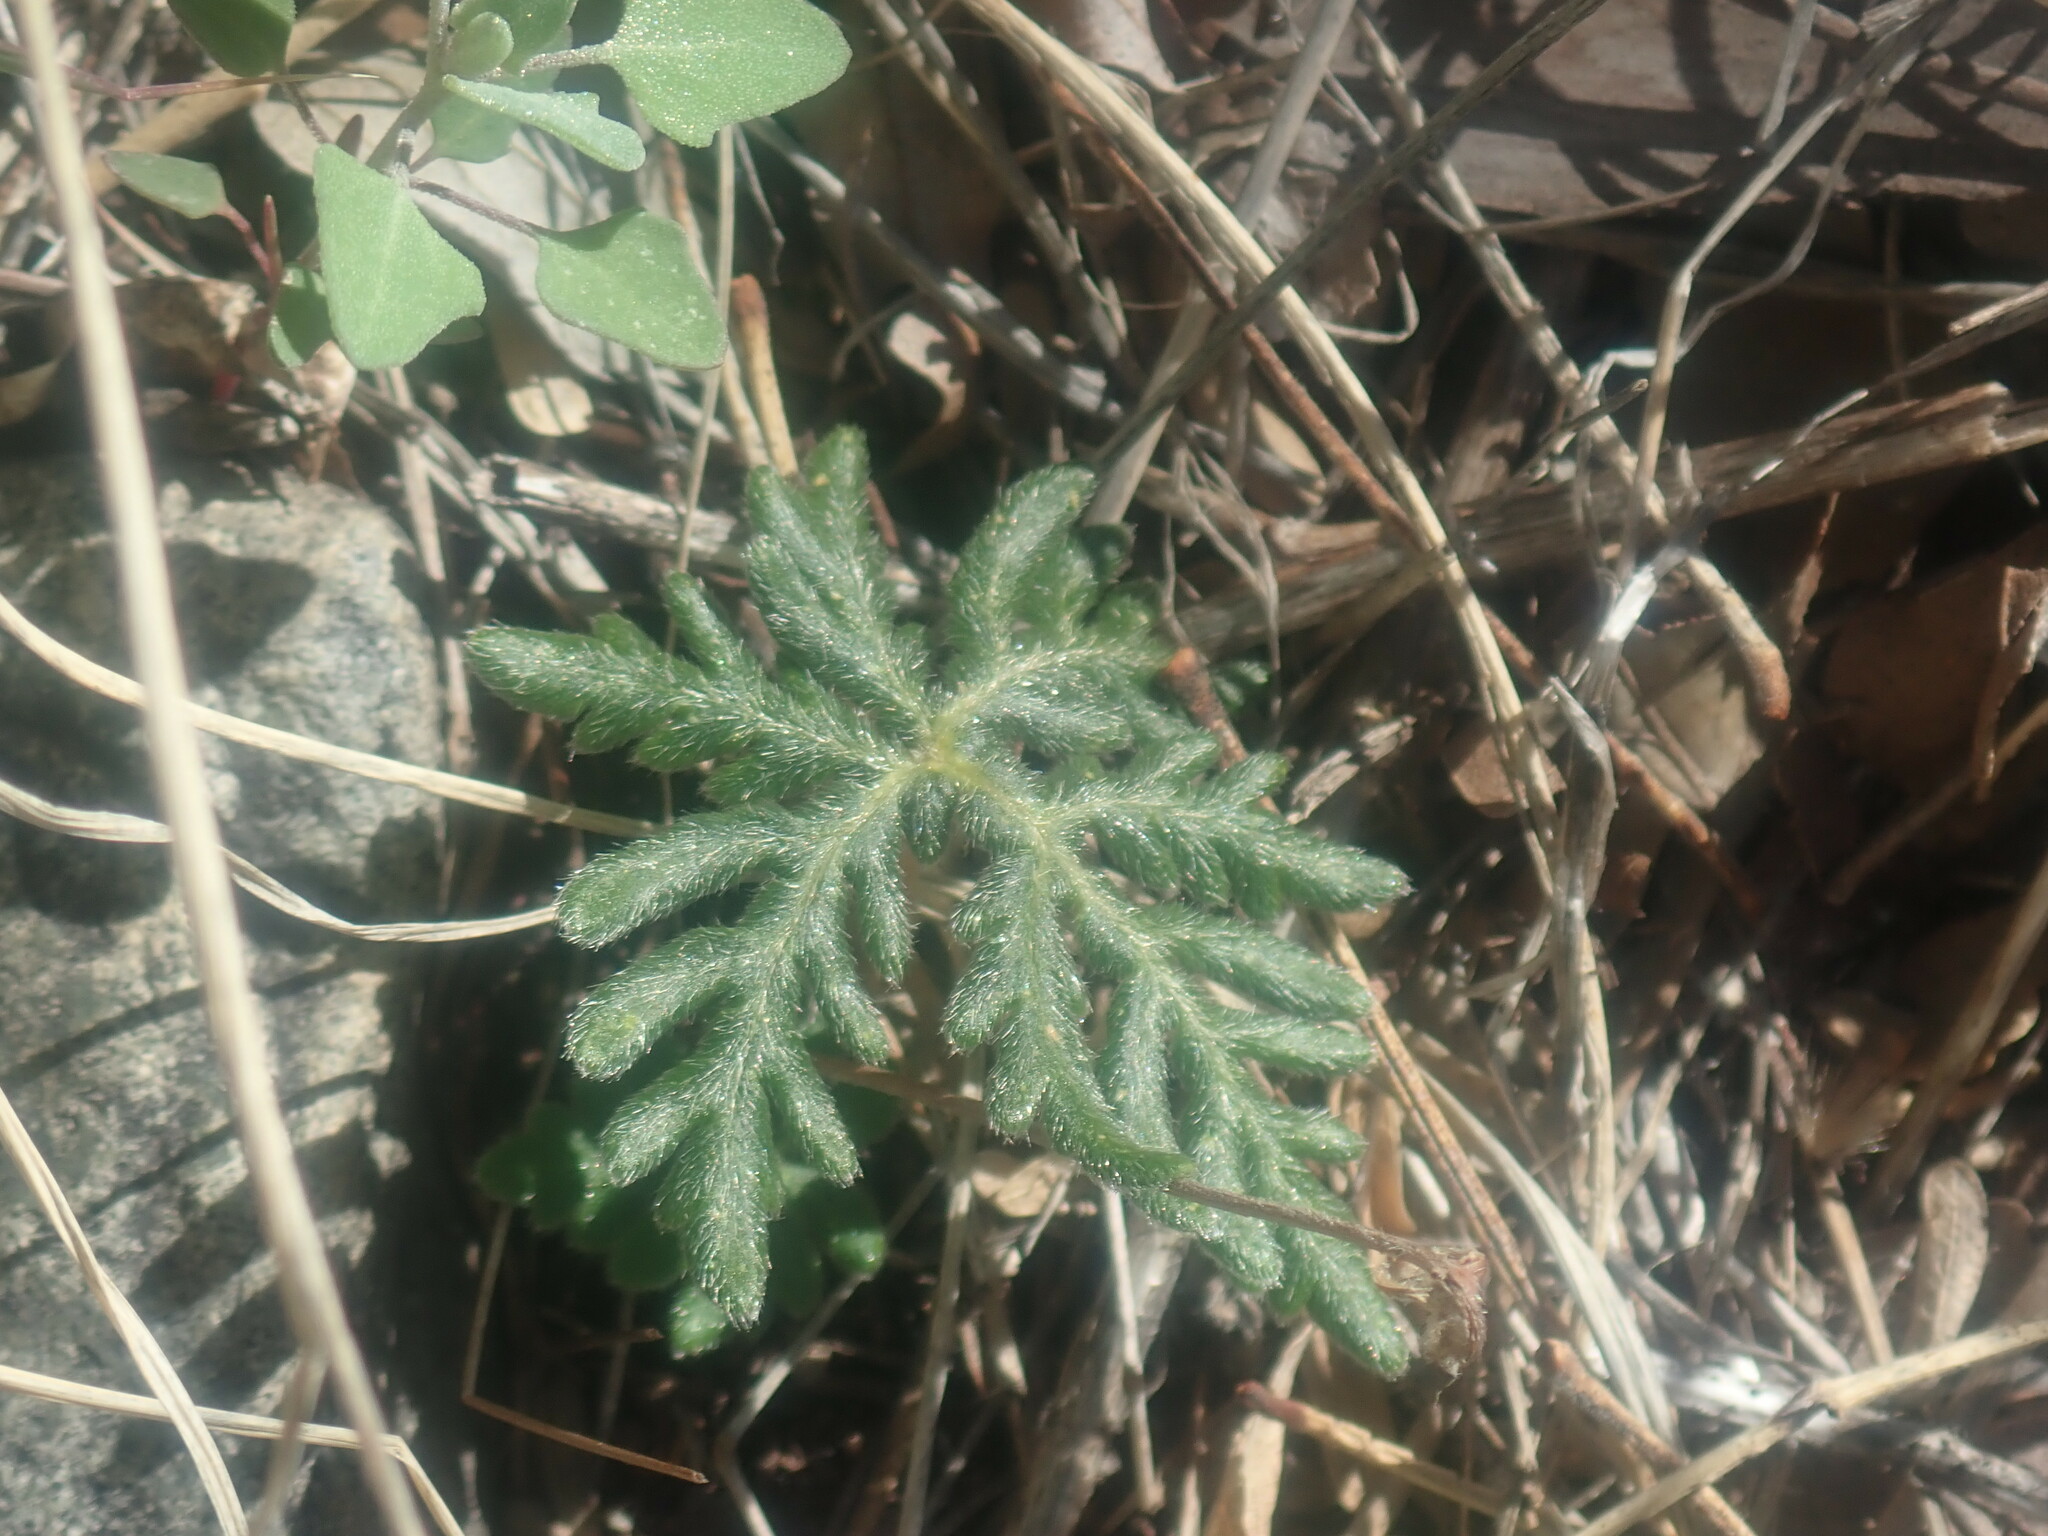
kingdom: Plantae
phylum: Tracheophyta
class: Polypodiopsida
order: Polypodiales
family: Pteridaceae
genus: Bommeria
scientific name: Bommeria hispida
